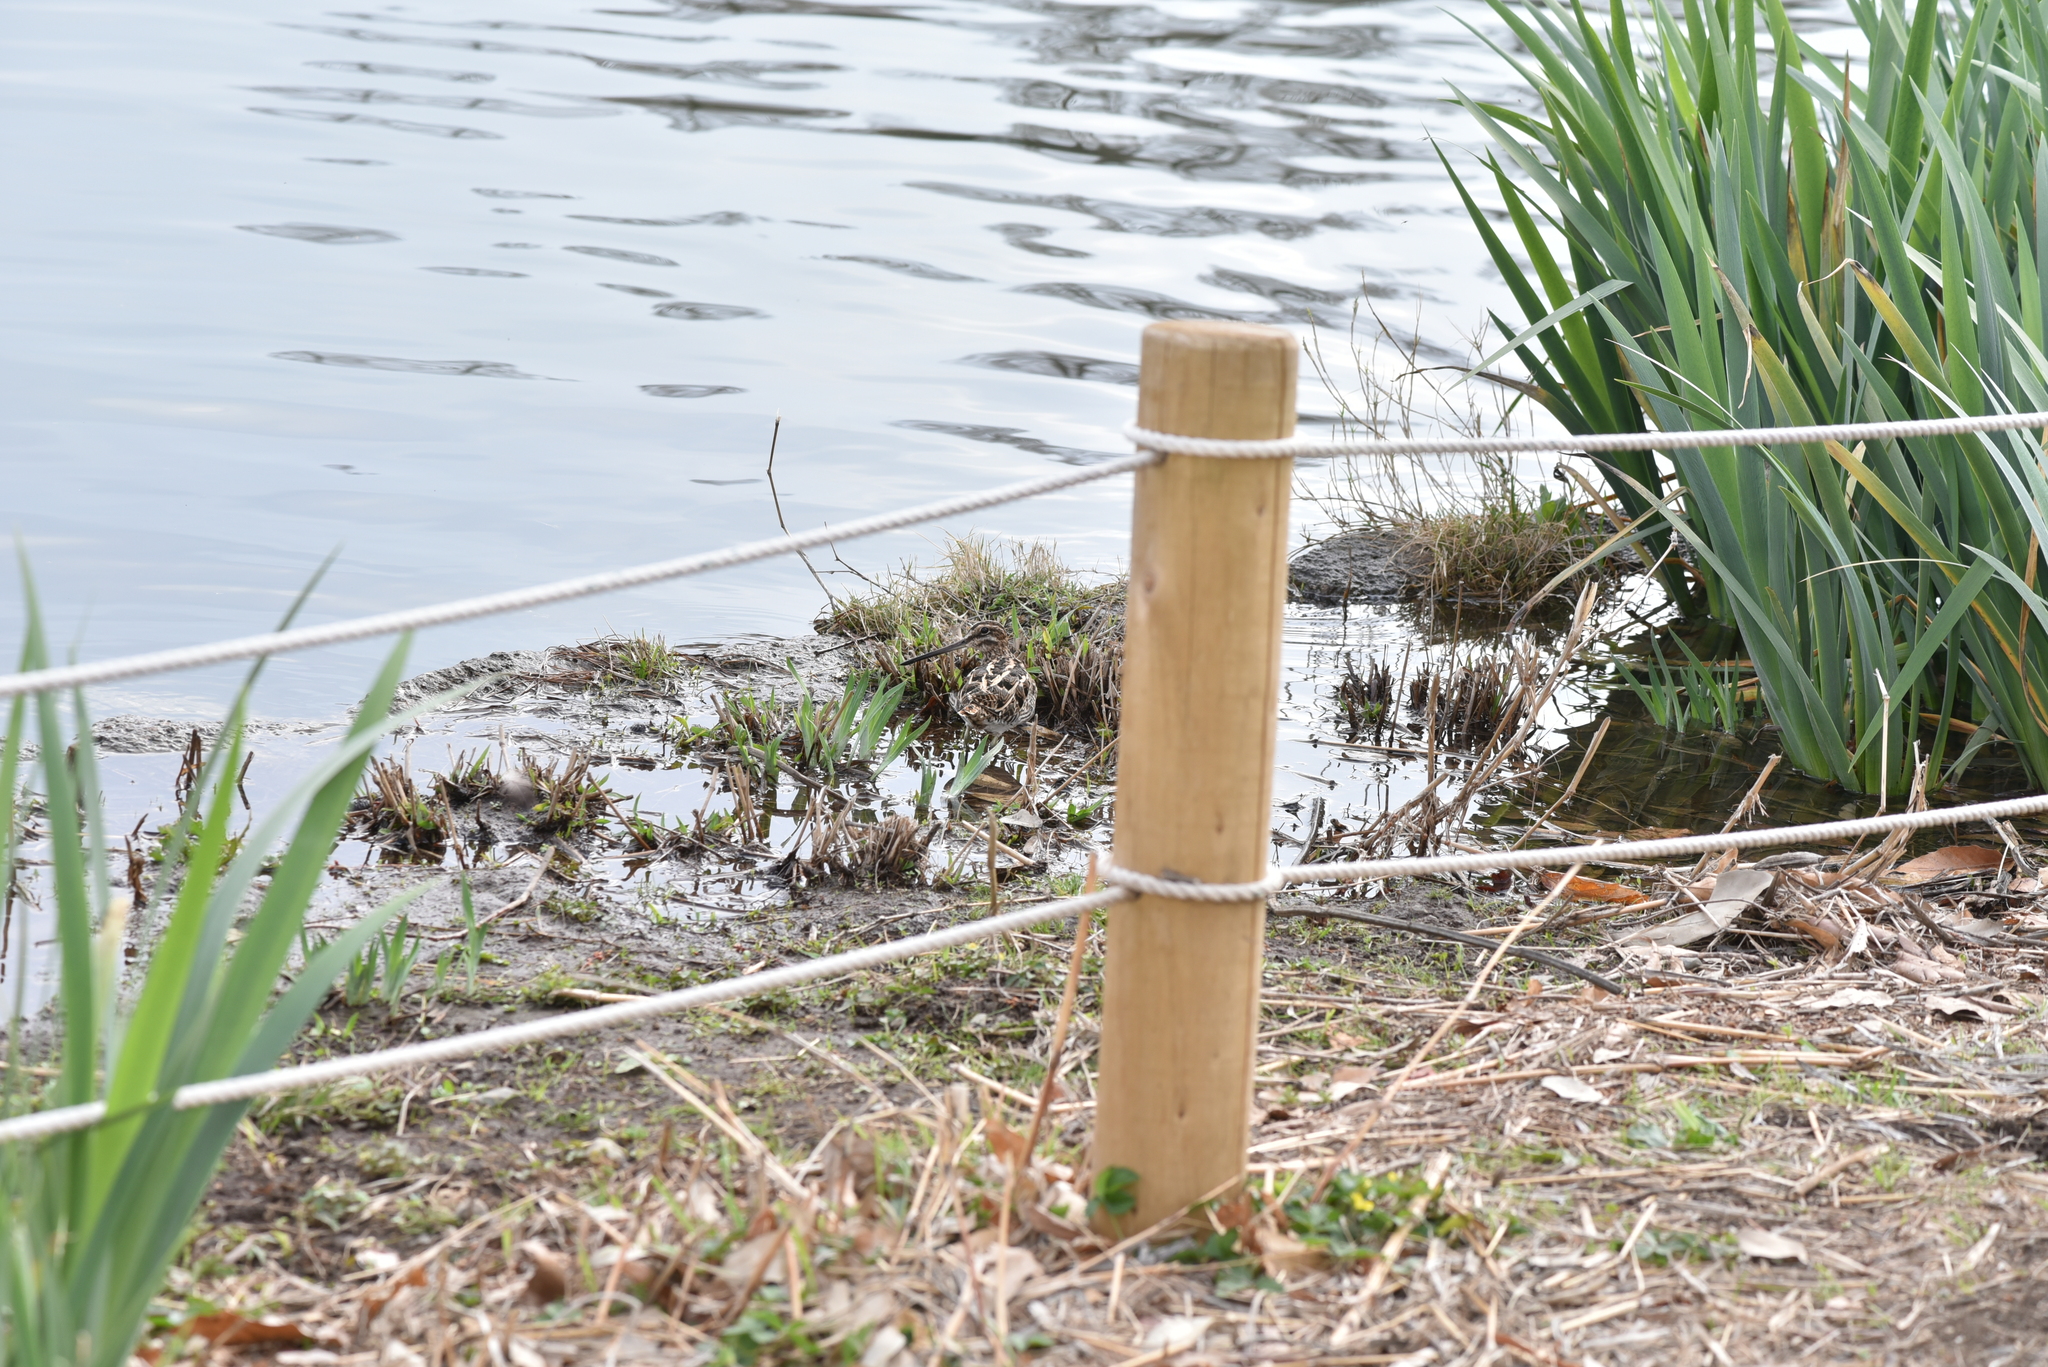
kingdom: Animalia
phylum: Chordata
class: Aves
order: Charadriiformes
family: Scolopacidae
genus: Gallinago
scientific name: Gallinago gallinago
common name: Common snipe
